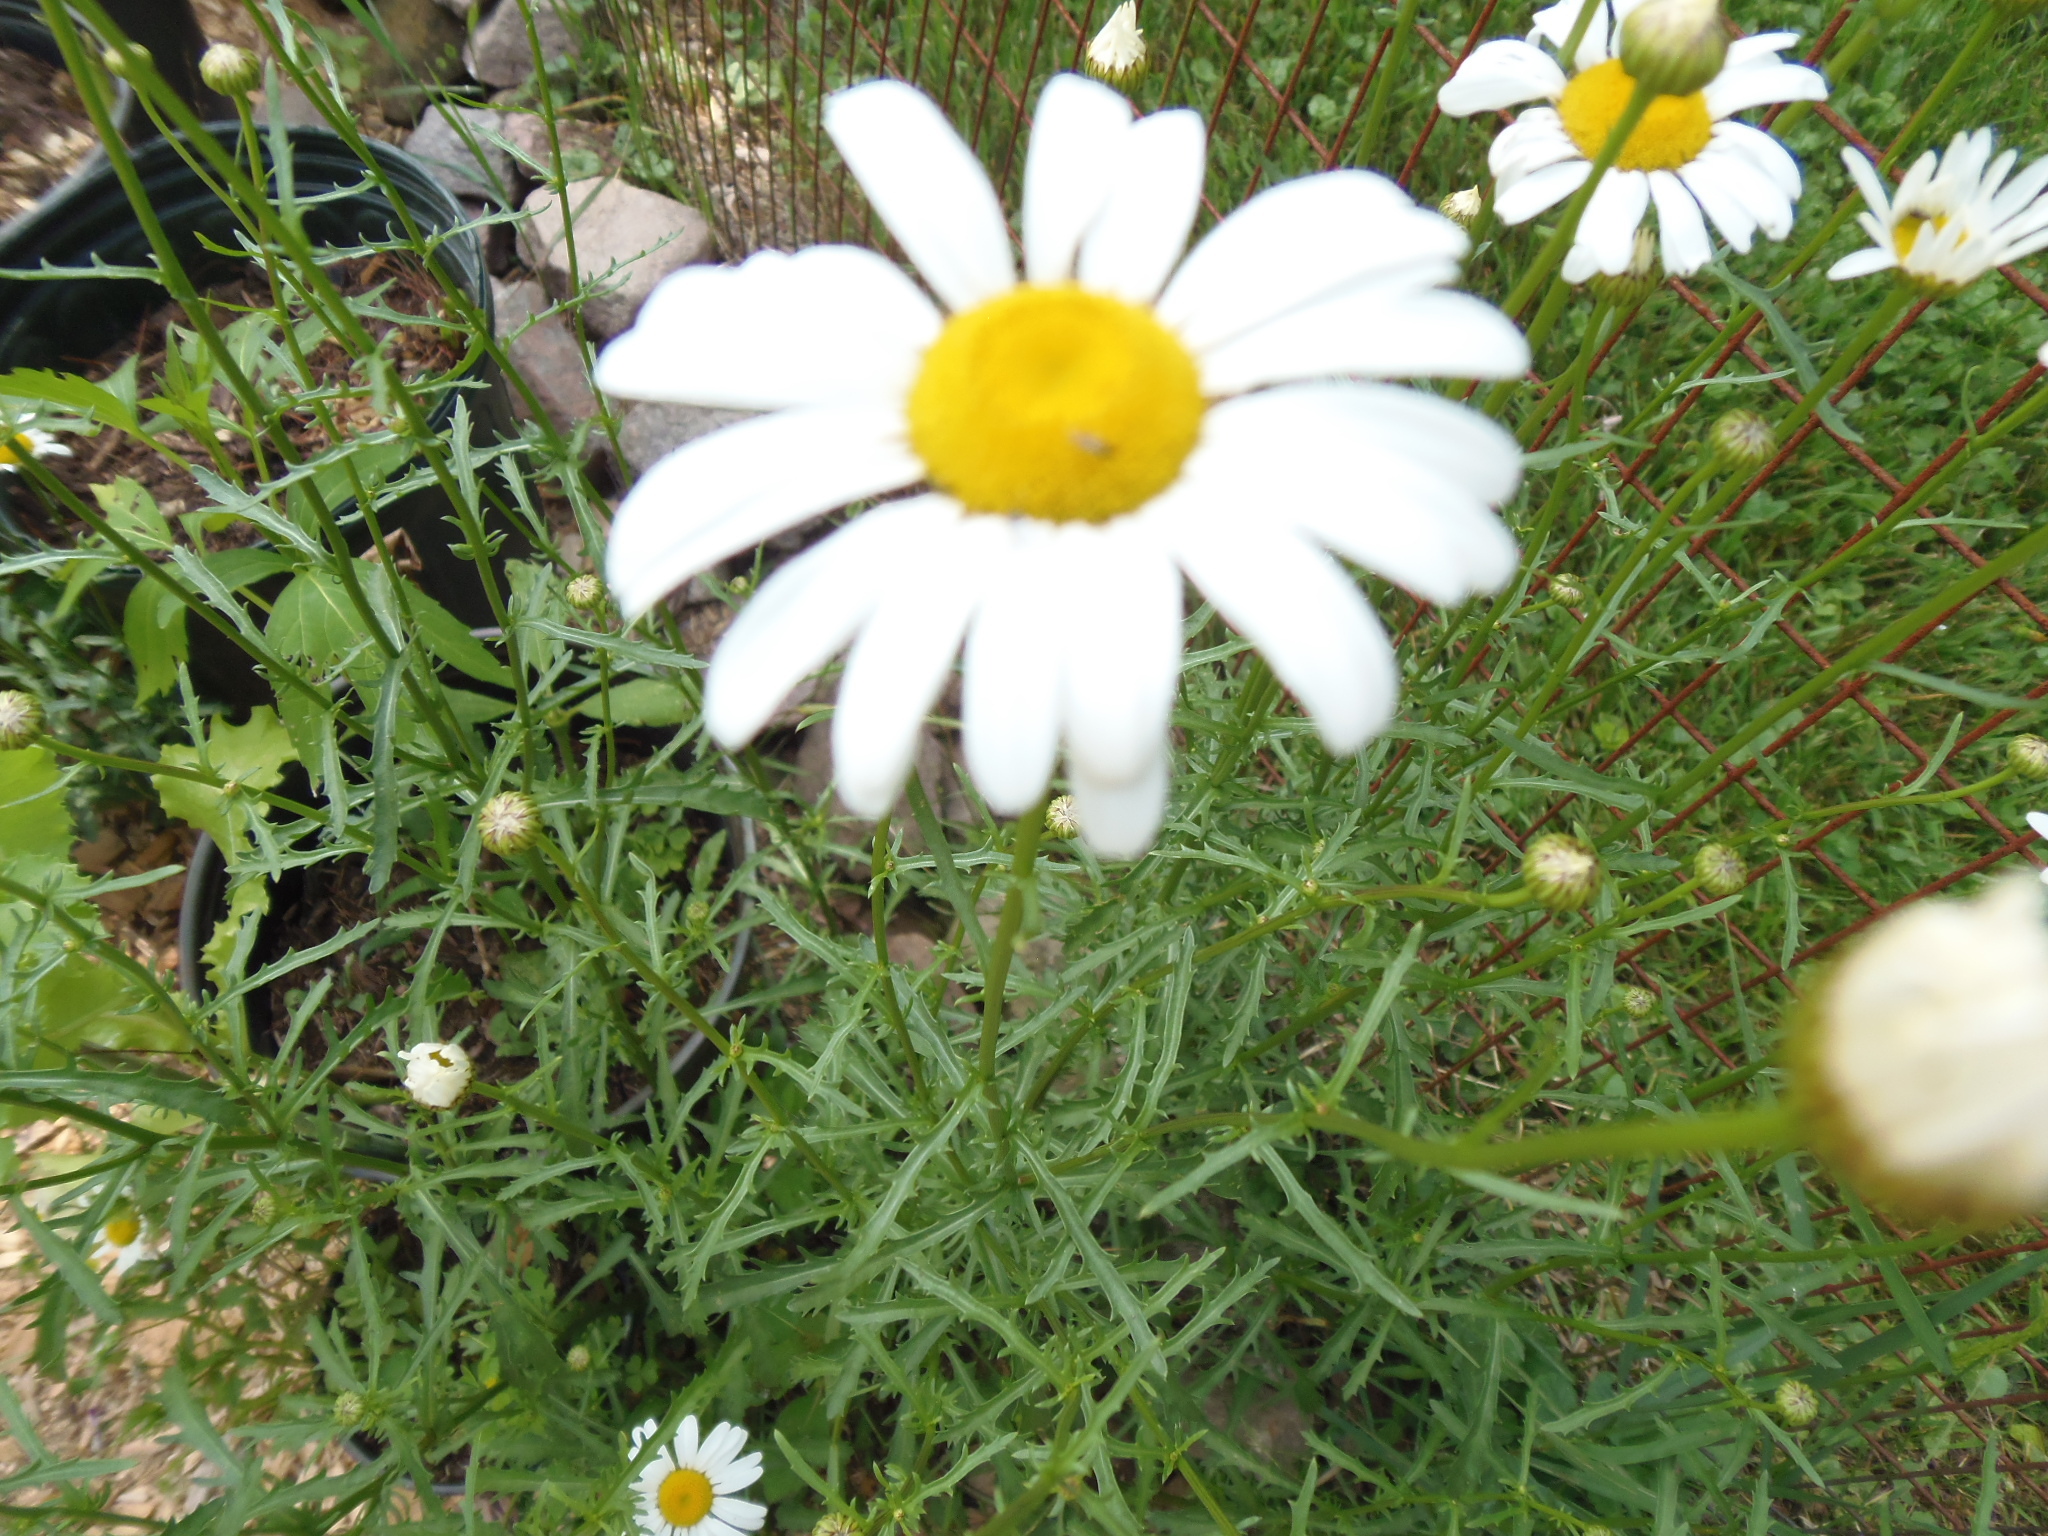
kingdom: Plantae
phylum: Tracheophyta
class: Magnoliopsida
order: Asterales
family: Asteraceae
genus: Leucanthemum
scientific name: Leucanthemum vulgare
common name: Oxeye daisy
